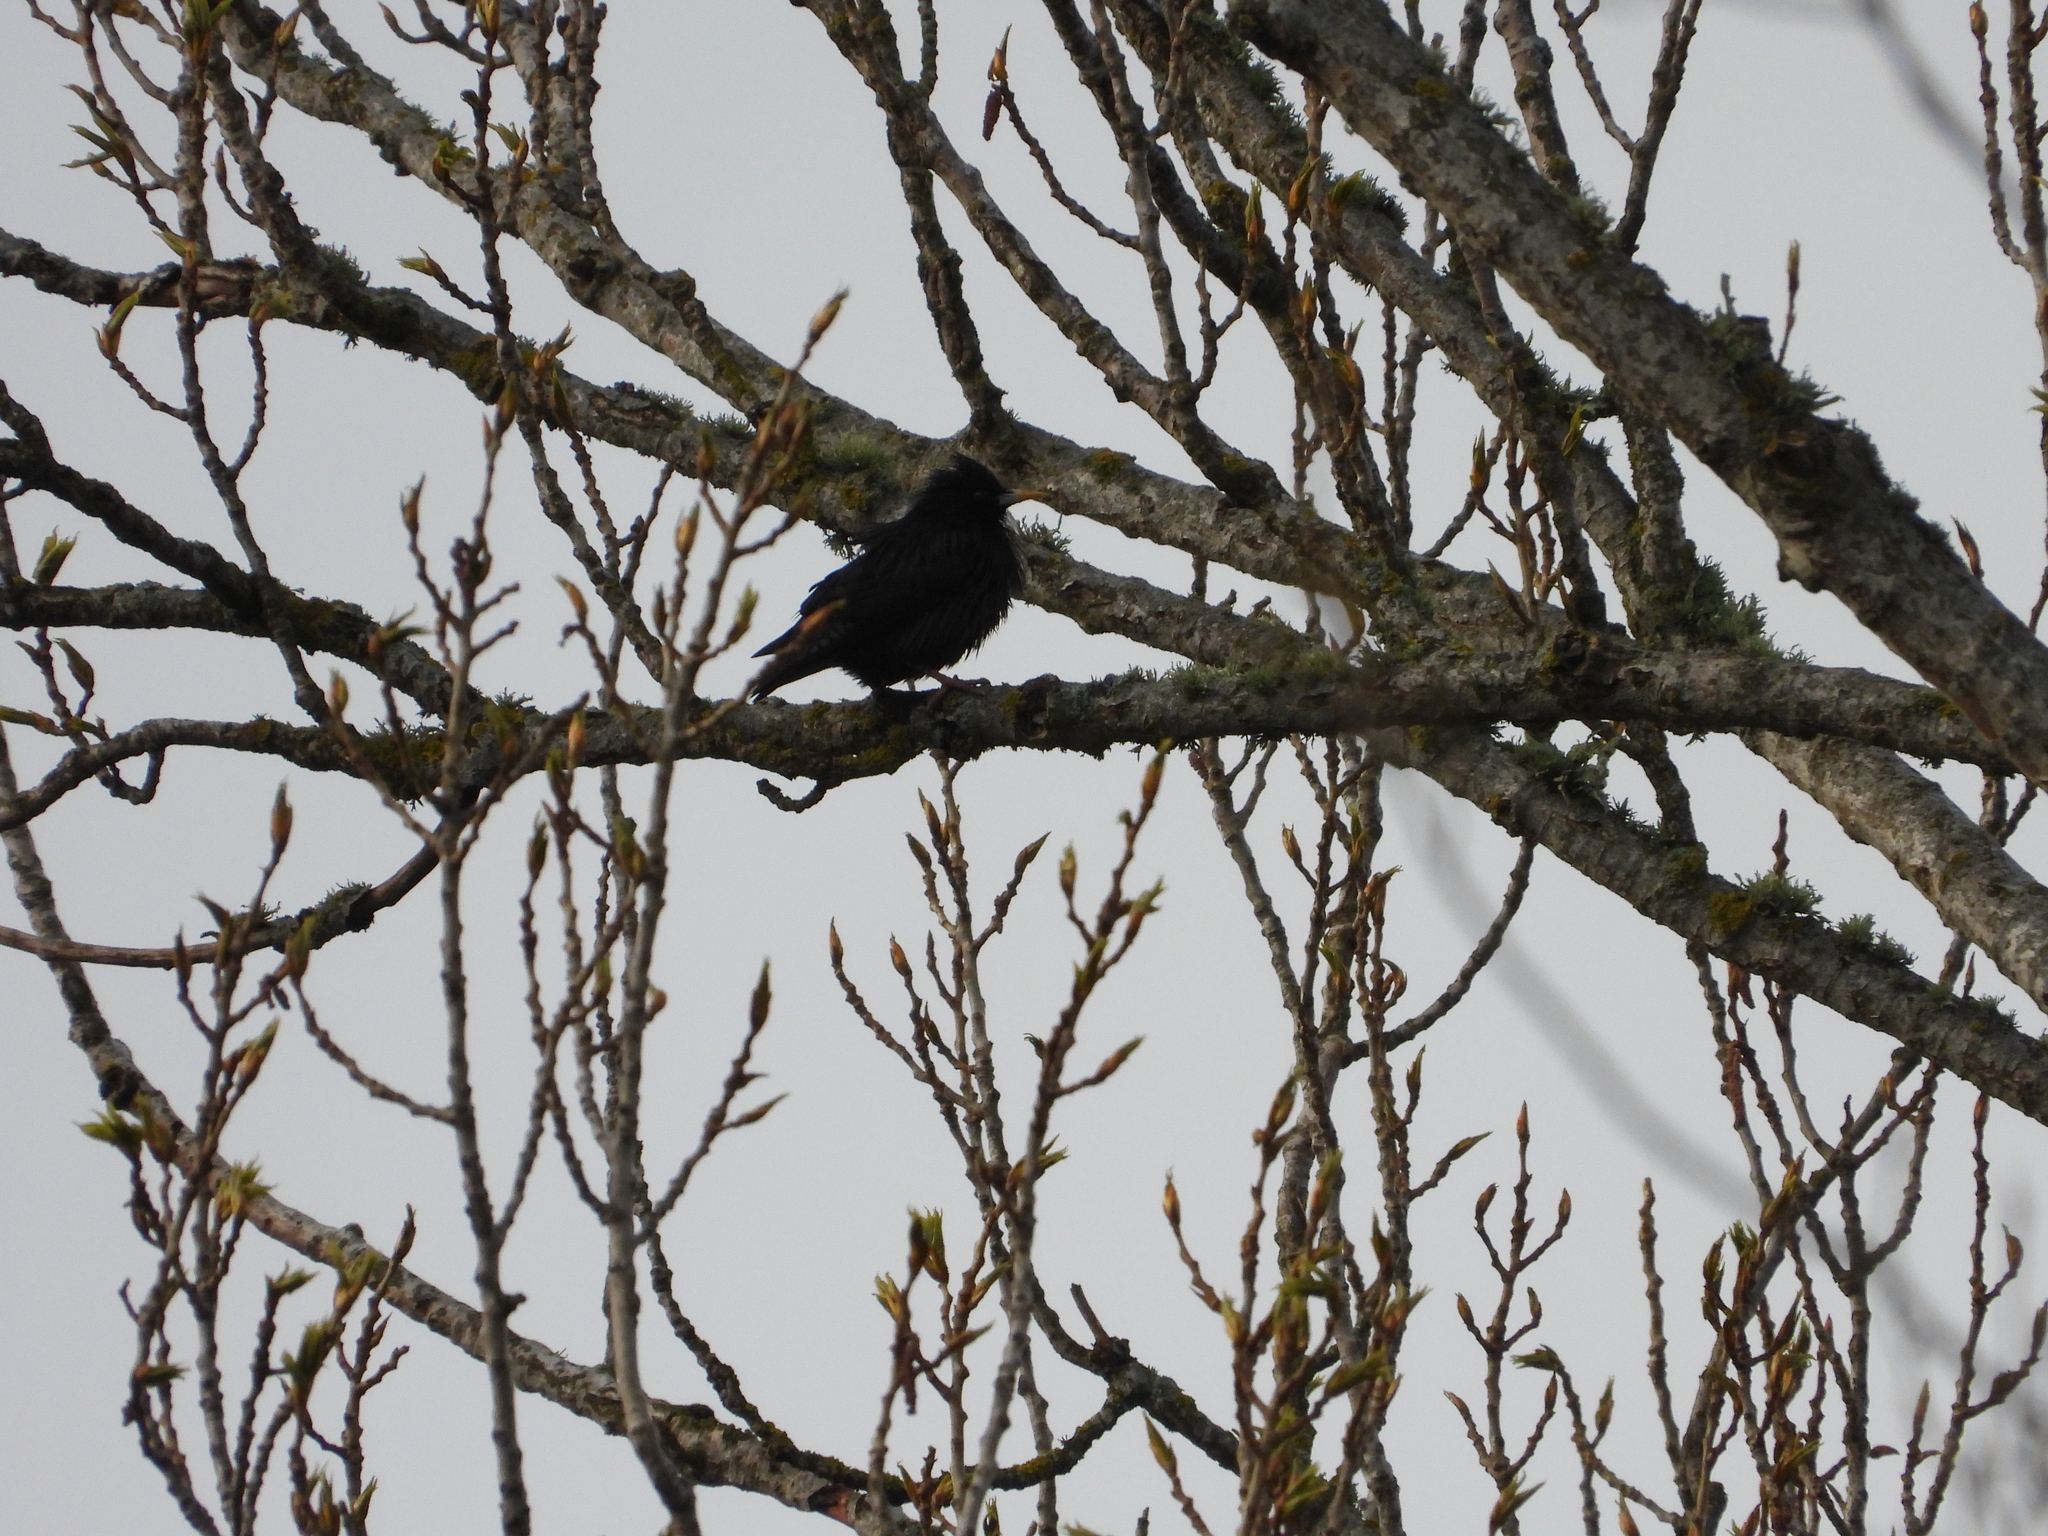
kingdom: Animalia
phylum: Chordata
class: Aves
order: Passeriformes
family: Sturnidae
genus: Sturnus
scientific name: Sturnus unicolor
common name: Spotless starling
